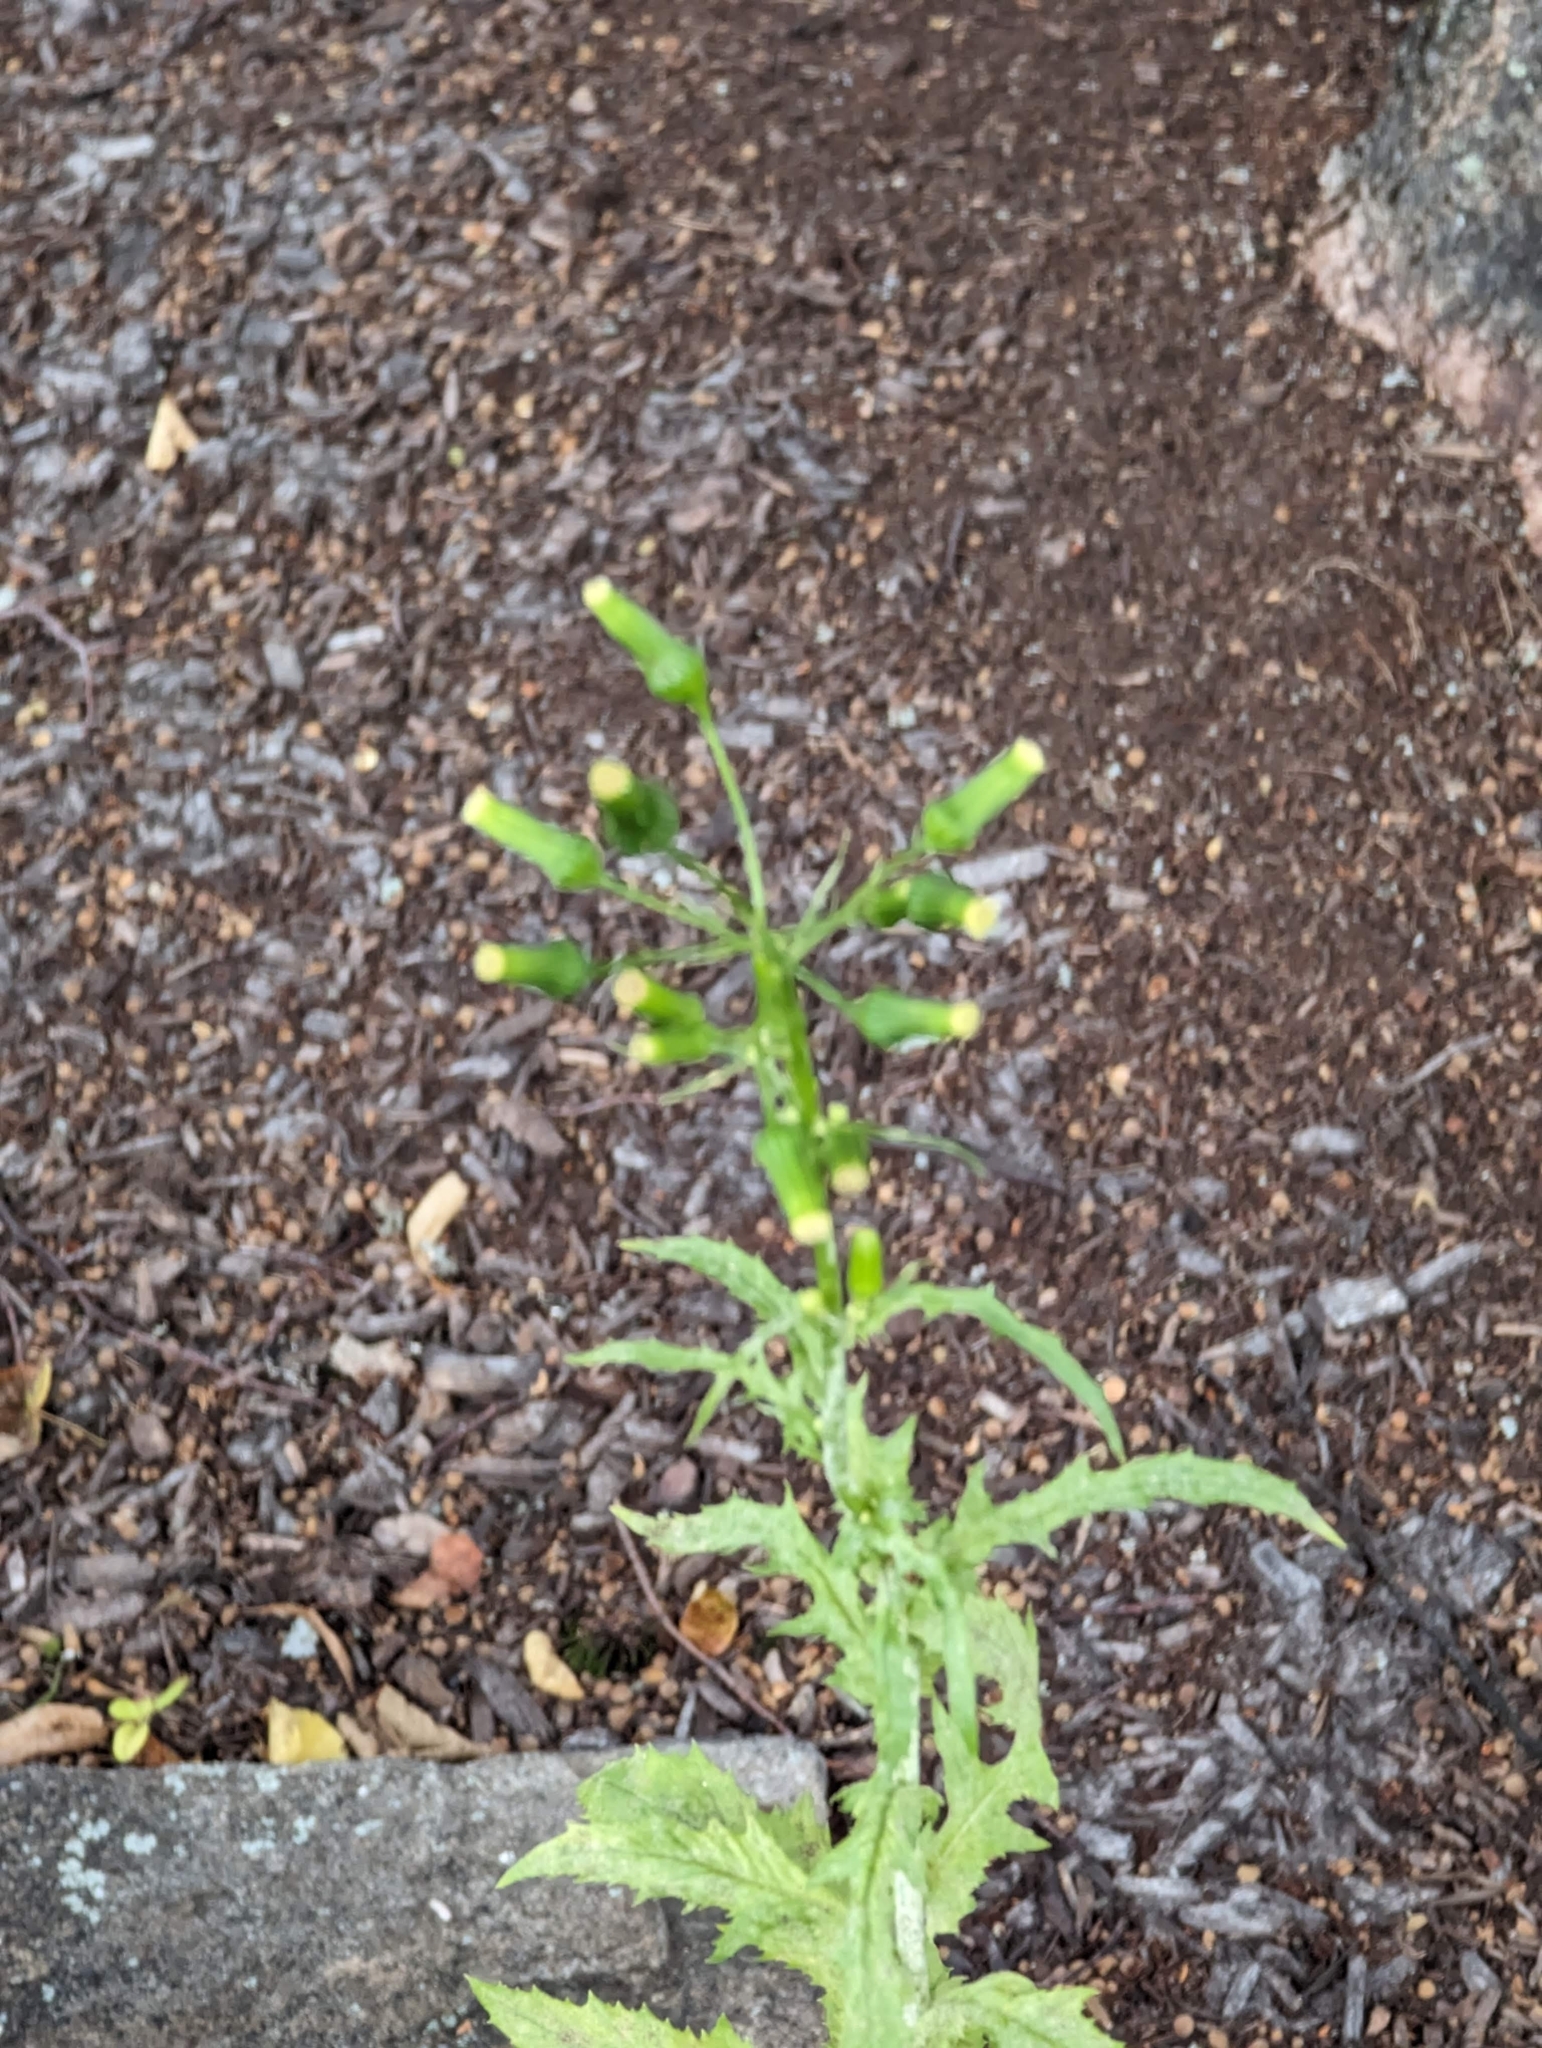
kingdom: Plantae
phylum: Tracheophyta
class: Magnoliopsida
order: Asterales
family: Asteraceae
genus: Erechtites
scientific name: Erechtites hieraciifolius
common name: American burnweed
